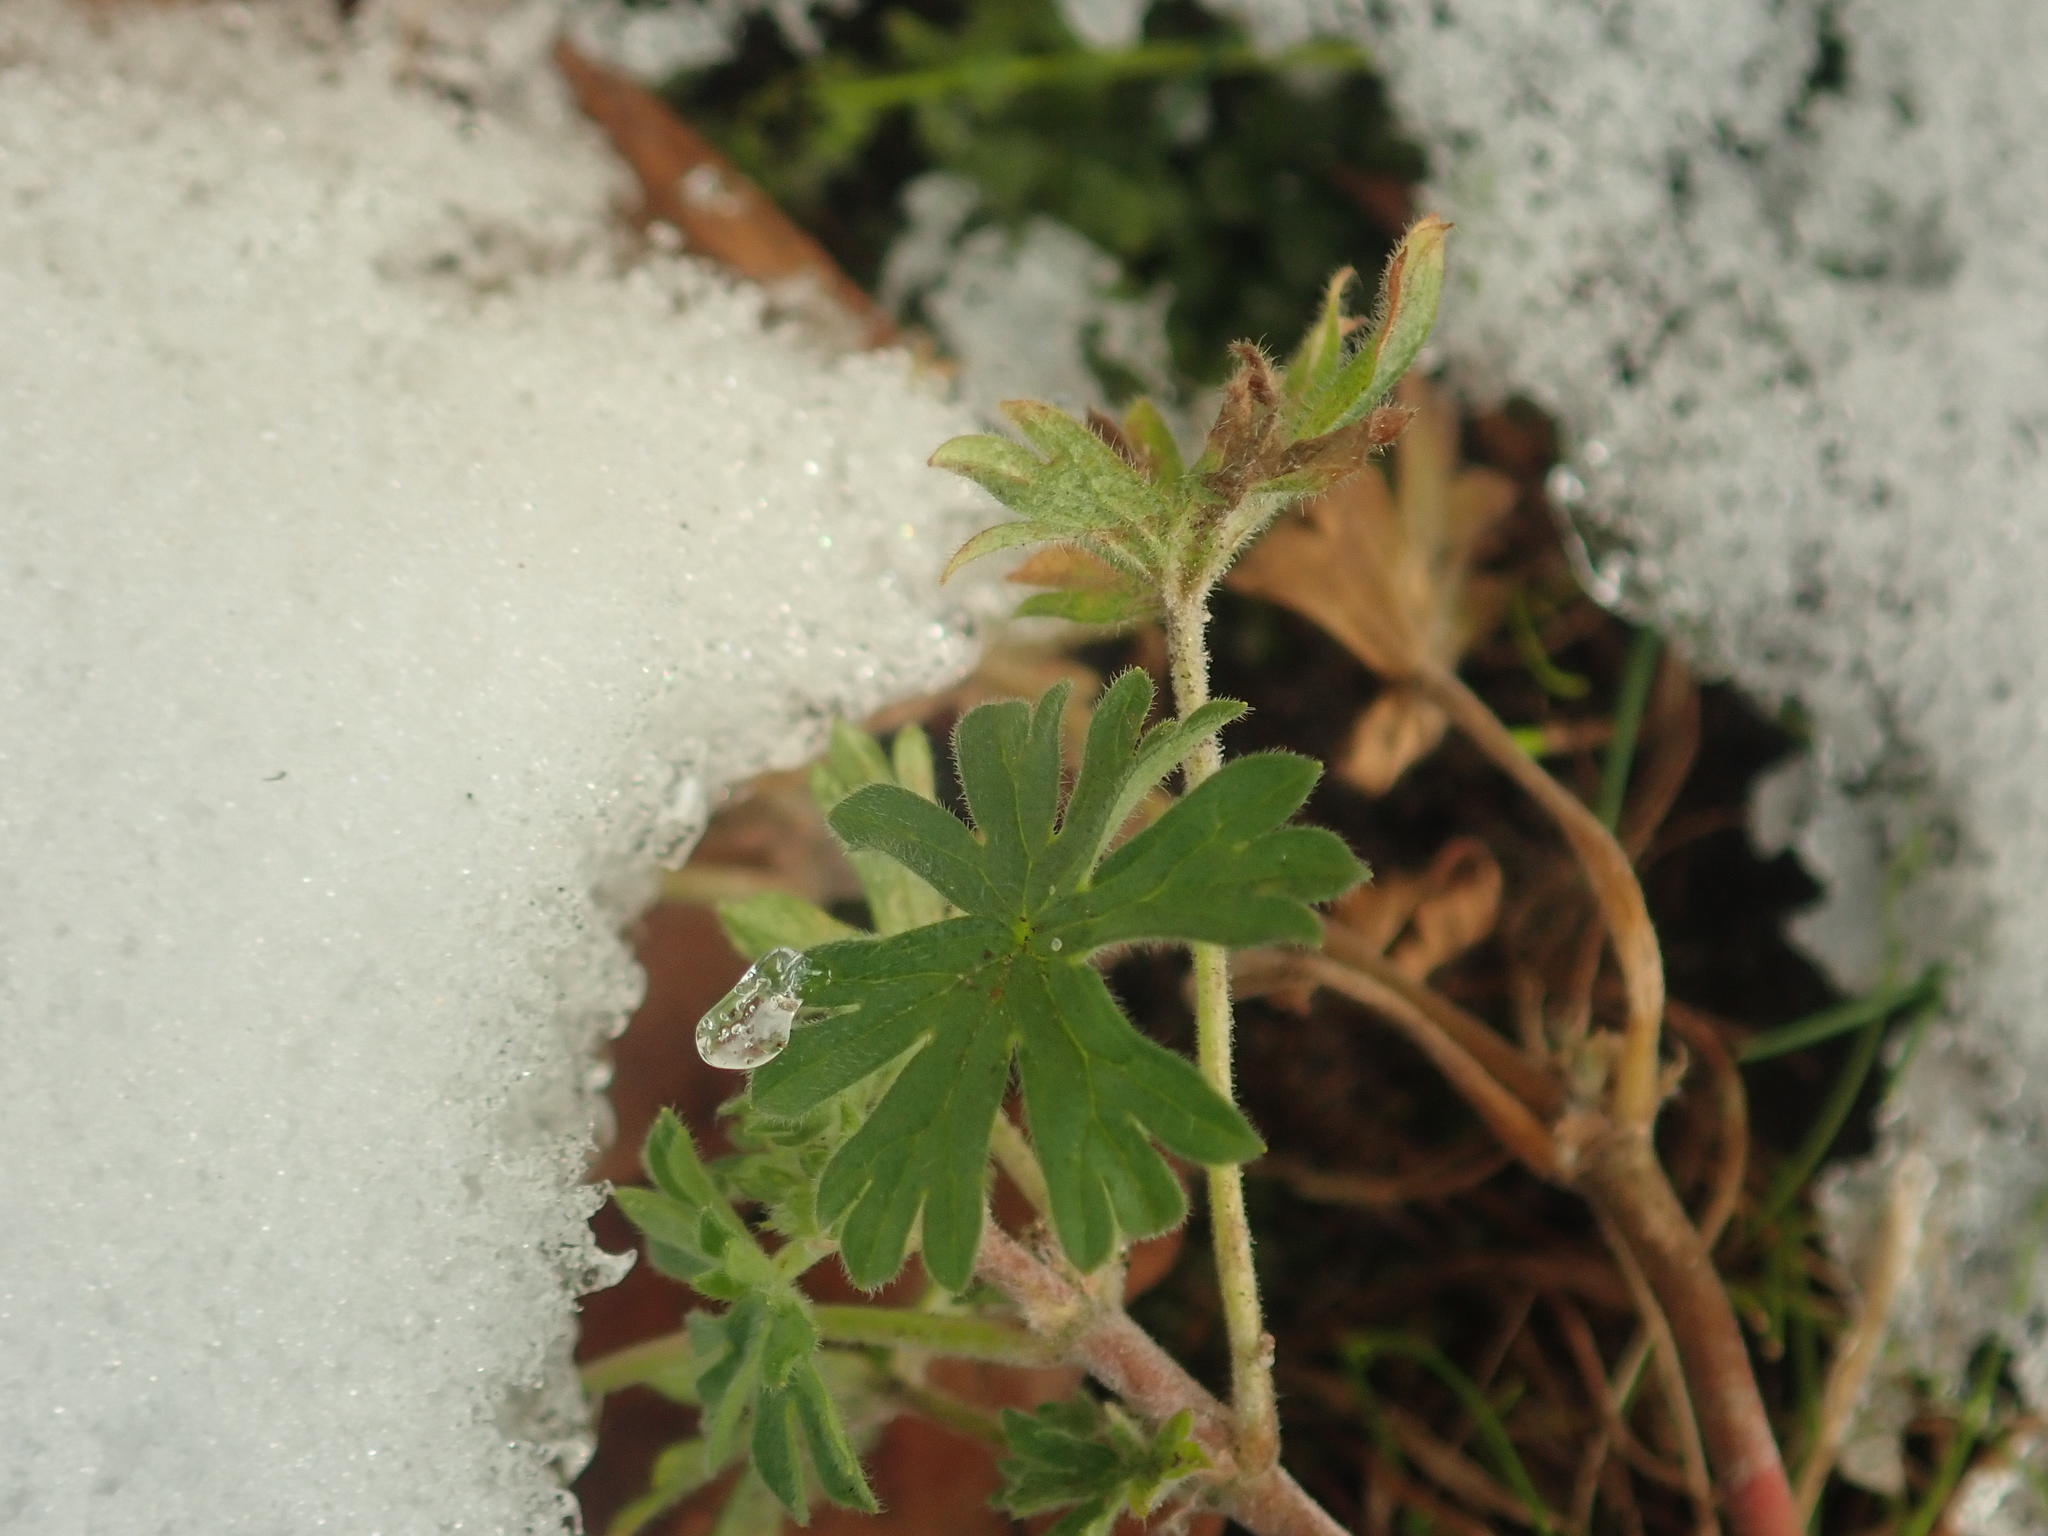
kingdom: Plantae
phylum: Tracheophyta
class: Magnoliopsida
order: Geraniales
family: Geraniaceae
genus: Geranium
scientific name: Geranium pusillum
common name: Small geranium
